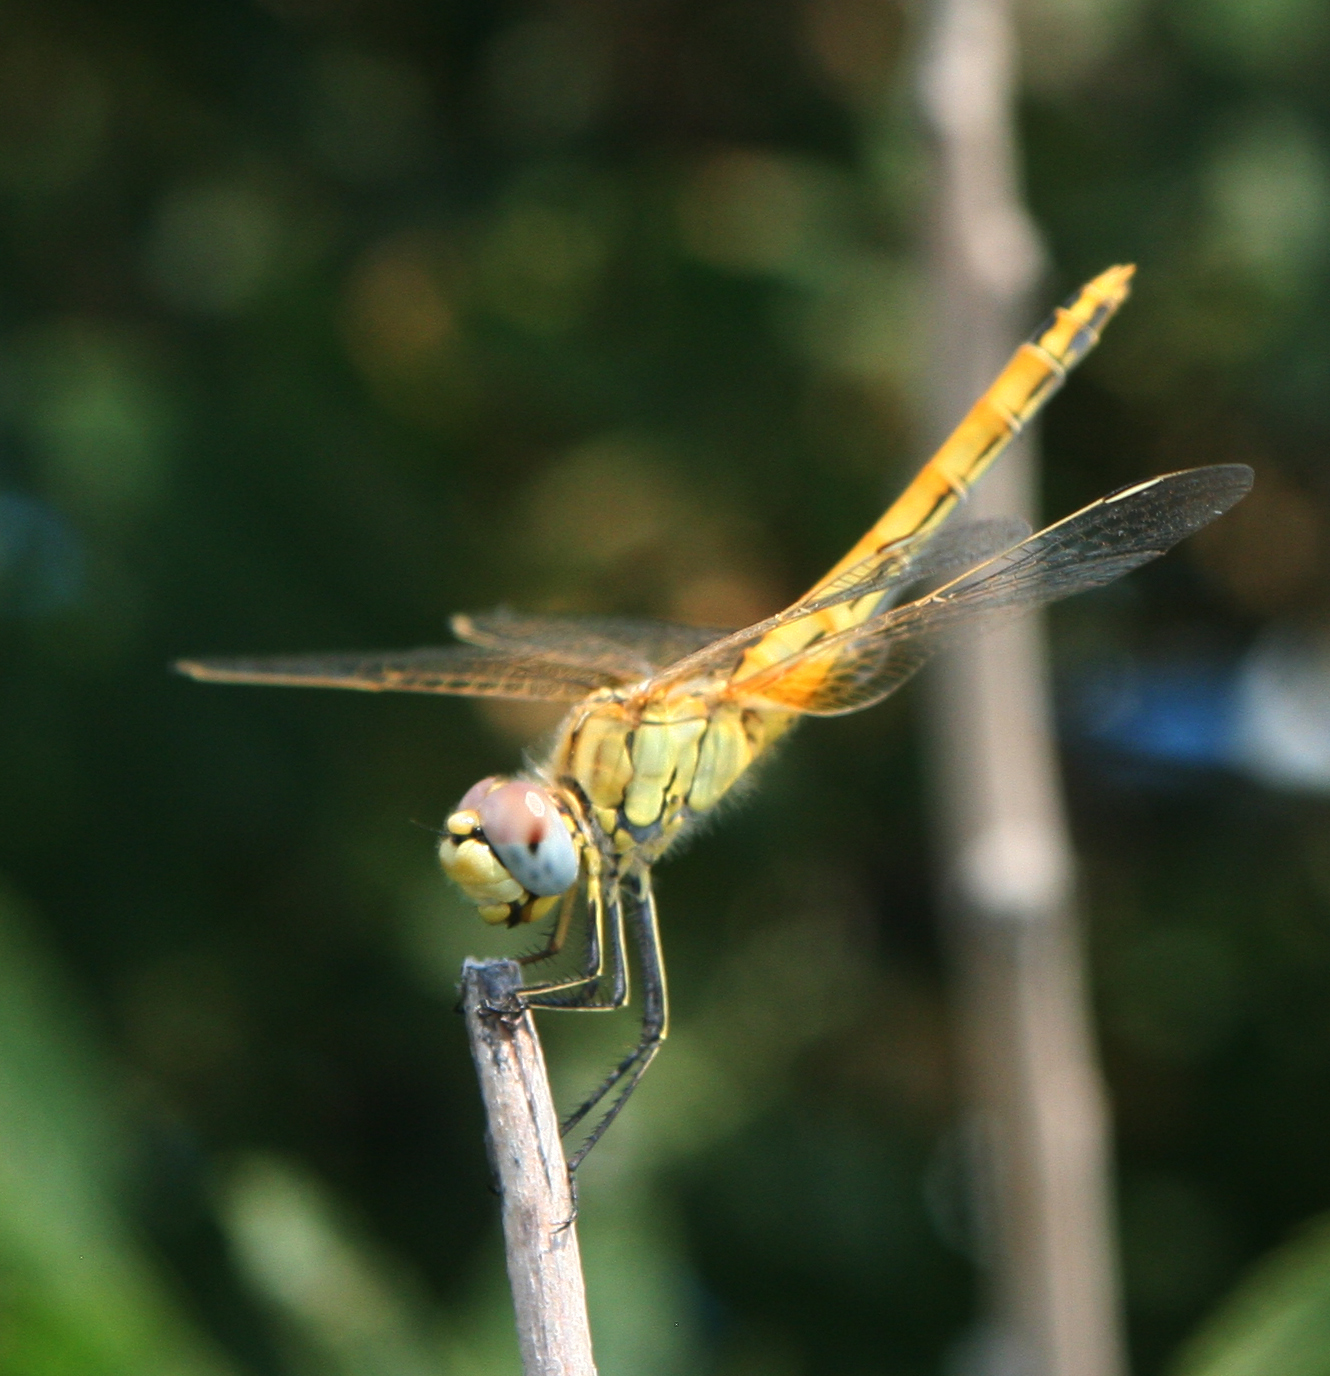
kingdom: Animalia
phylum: Arthropoda
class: Insecta
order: Odonata
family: Libellulidae
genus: Sympetrum
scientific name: Sympetrum fonscolombii
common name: Red-veined darter
